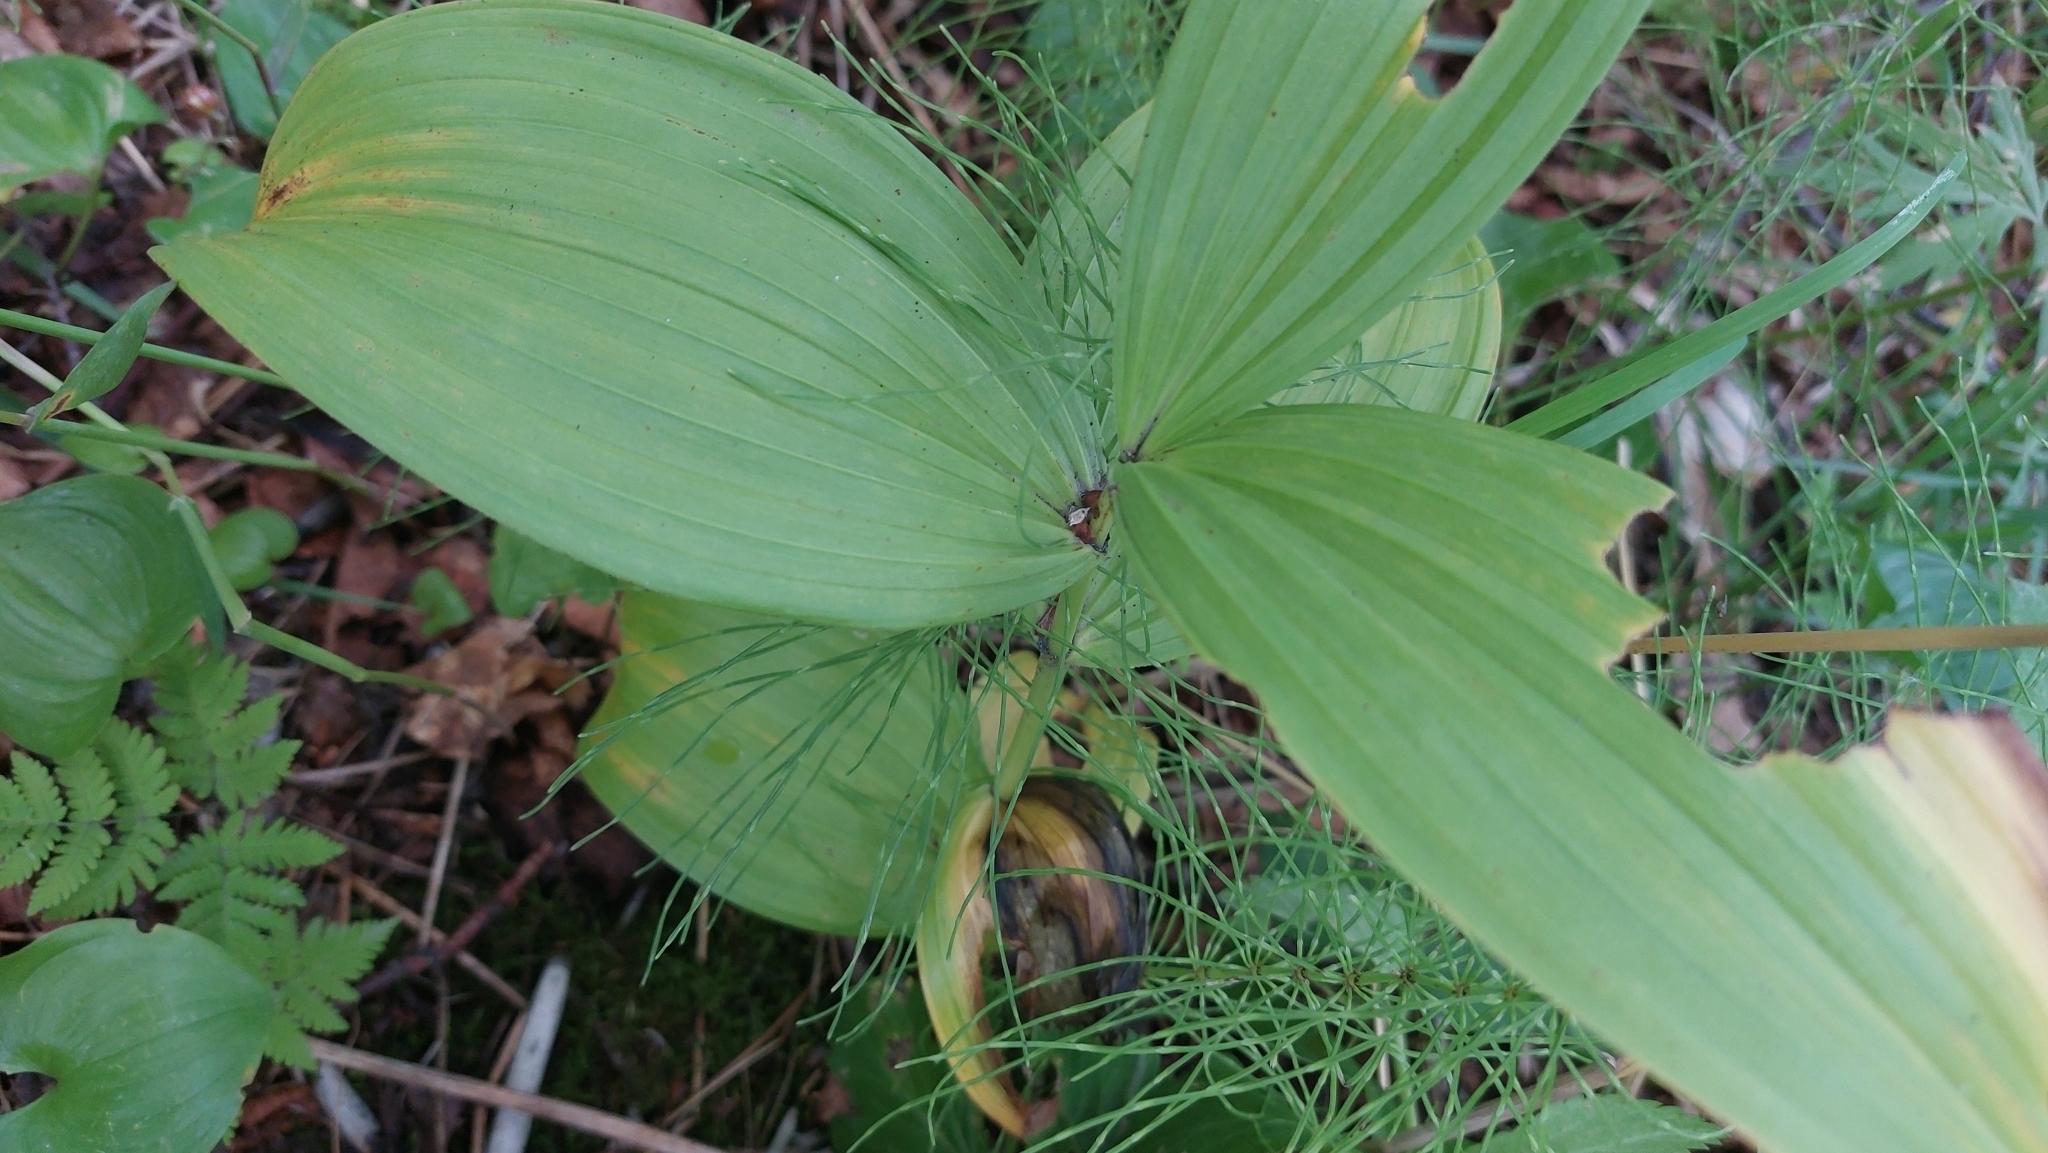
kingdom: Plantae
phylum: Tracheophyta
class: Liliopsida
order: Liliales
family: Melanthiaceae
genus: Veratrum
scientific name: Veratrum oxysepalum
